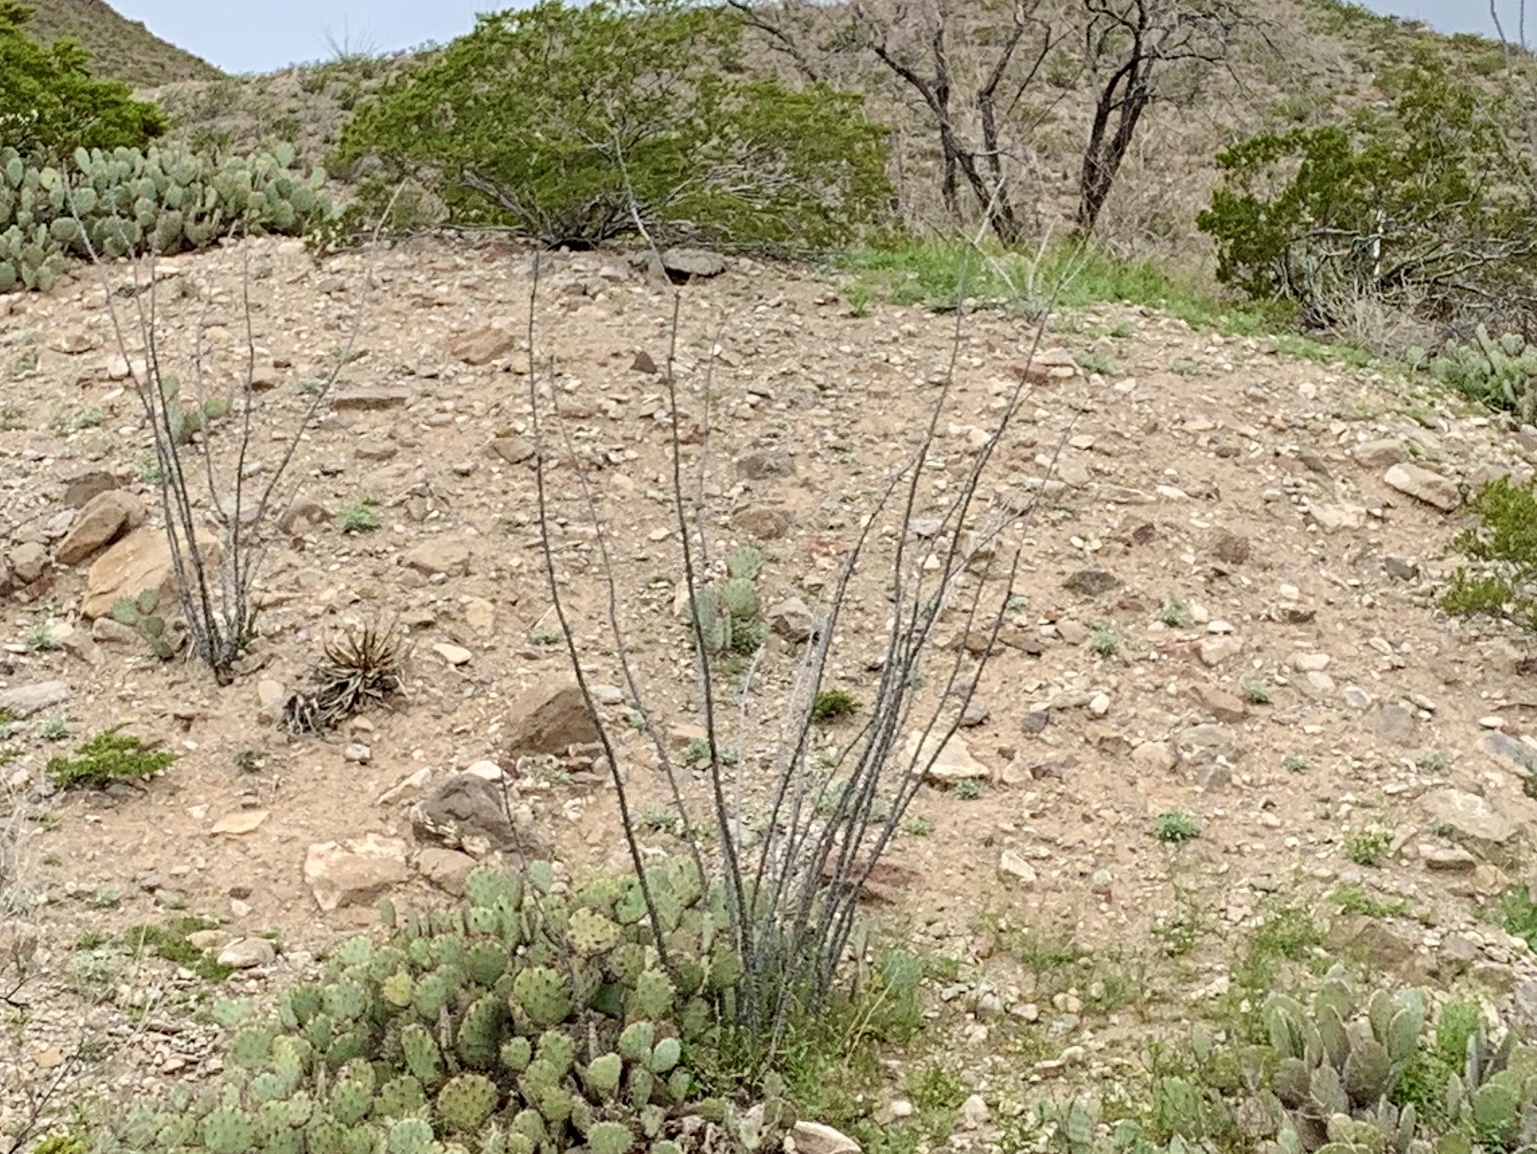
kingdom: Plantae
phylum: Tracheophyta
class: Magnoliopsida
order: Ericales
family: Fouquieriaceae
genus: Fouquieria
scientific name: Fouquieria splendens
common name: Vine-cactus
